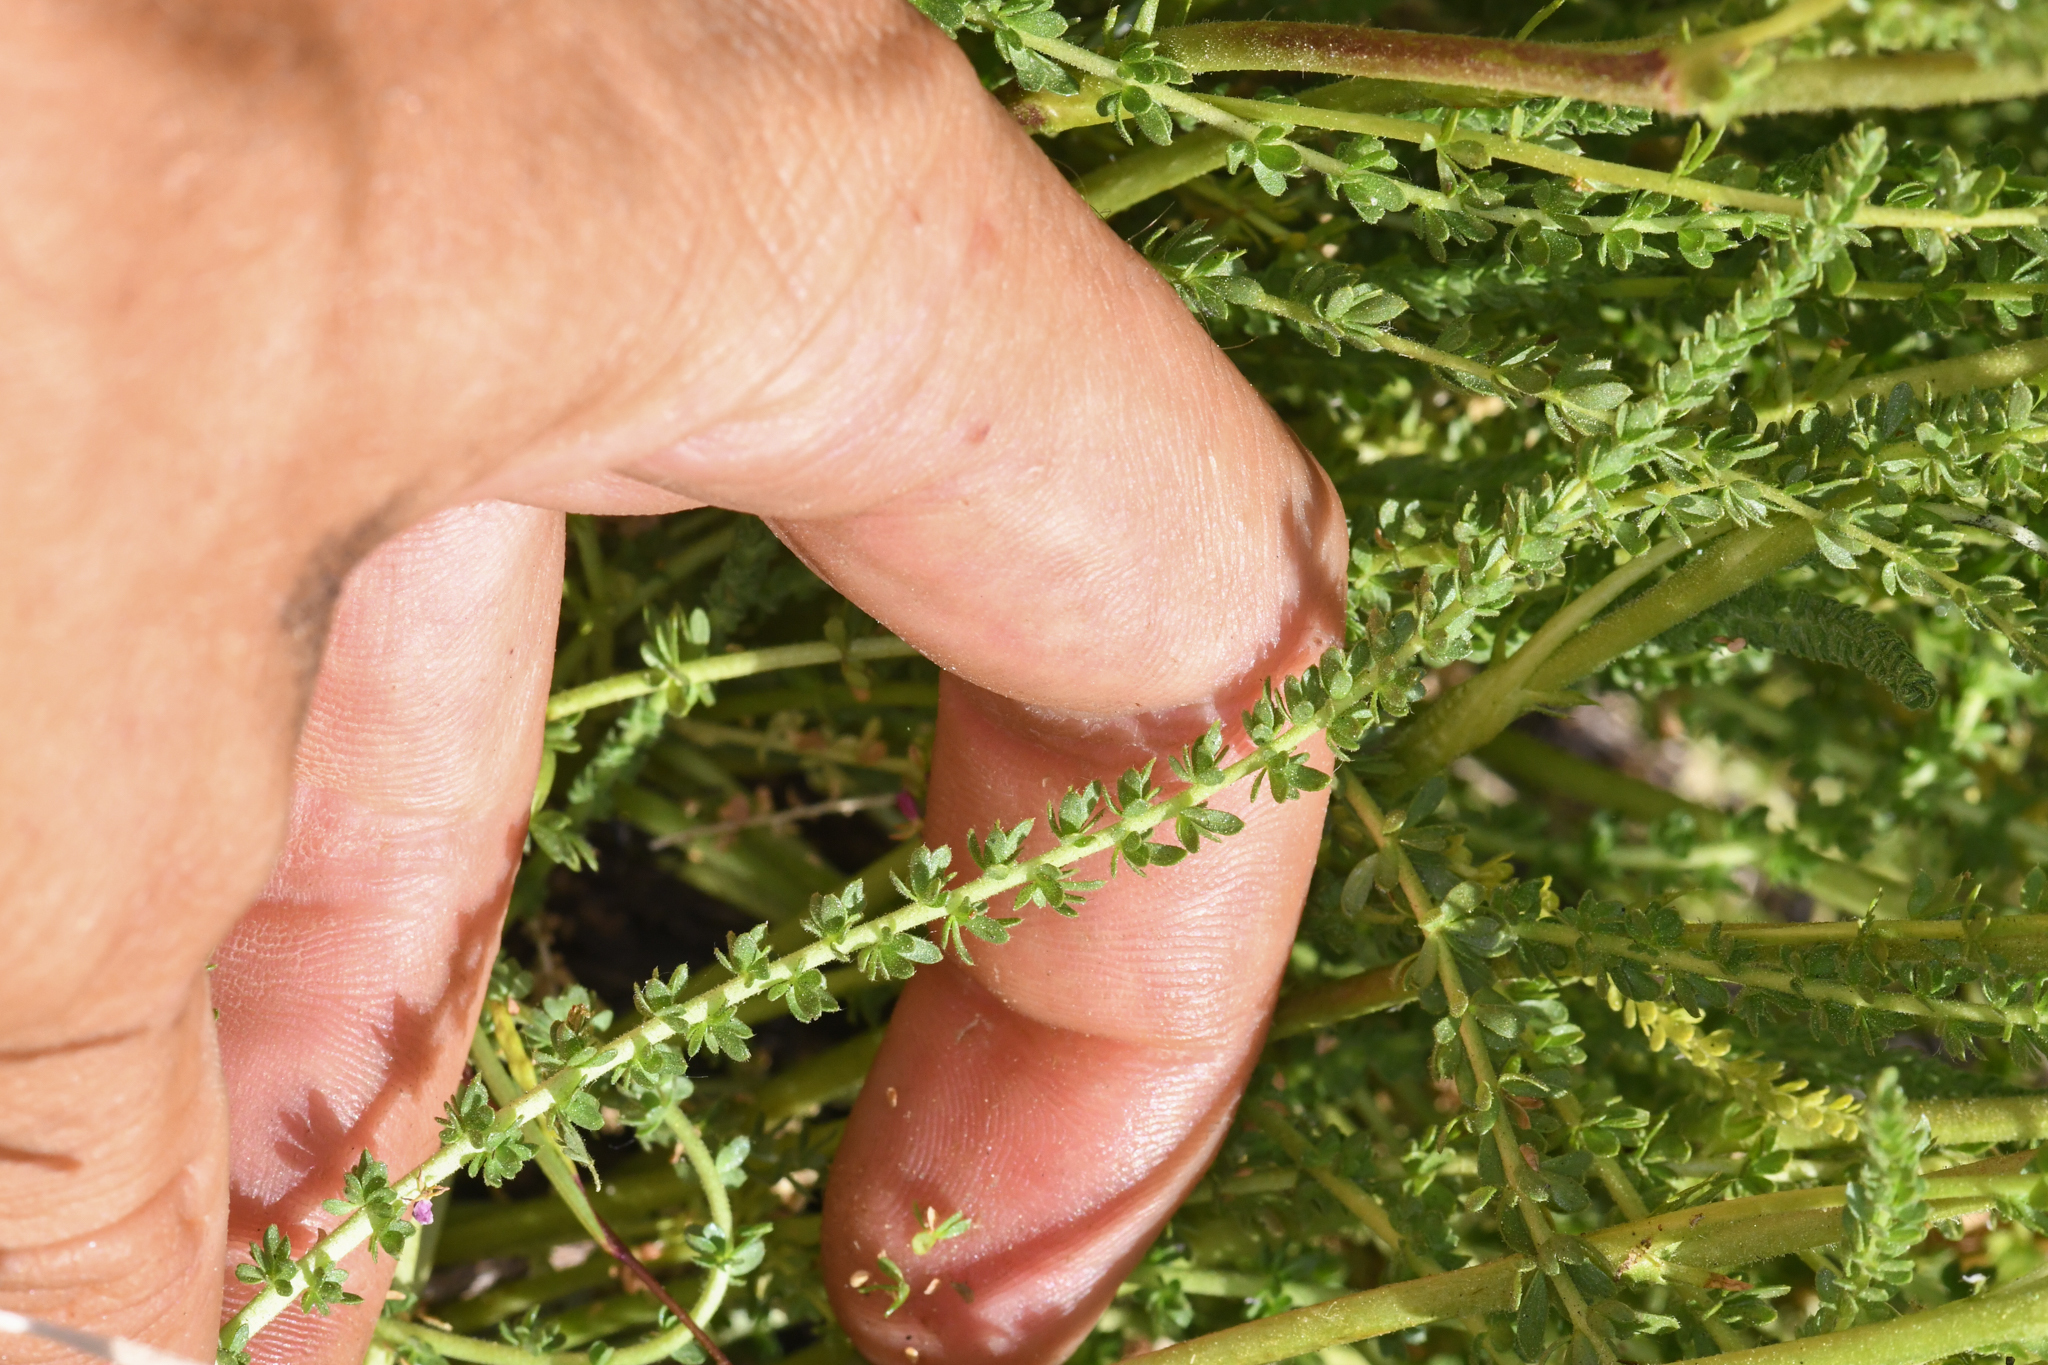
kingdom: Plantae
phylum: Tracheophyta
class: Magnoliopsida
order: Rosales
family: Rosaceae
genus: Potentilla
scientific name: Potentilla congdonis
